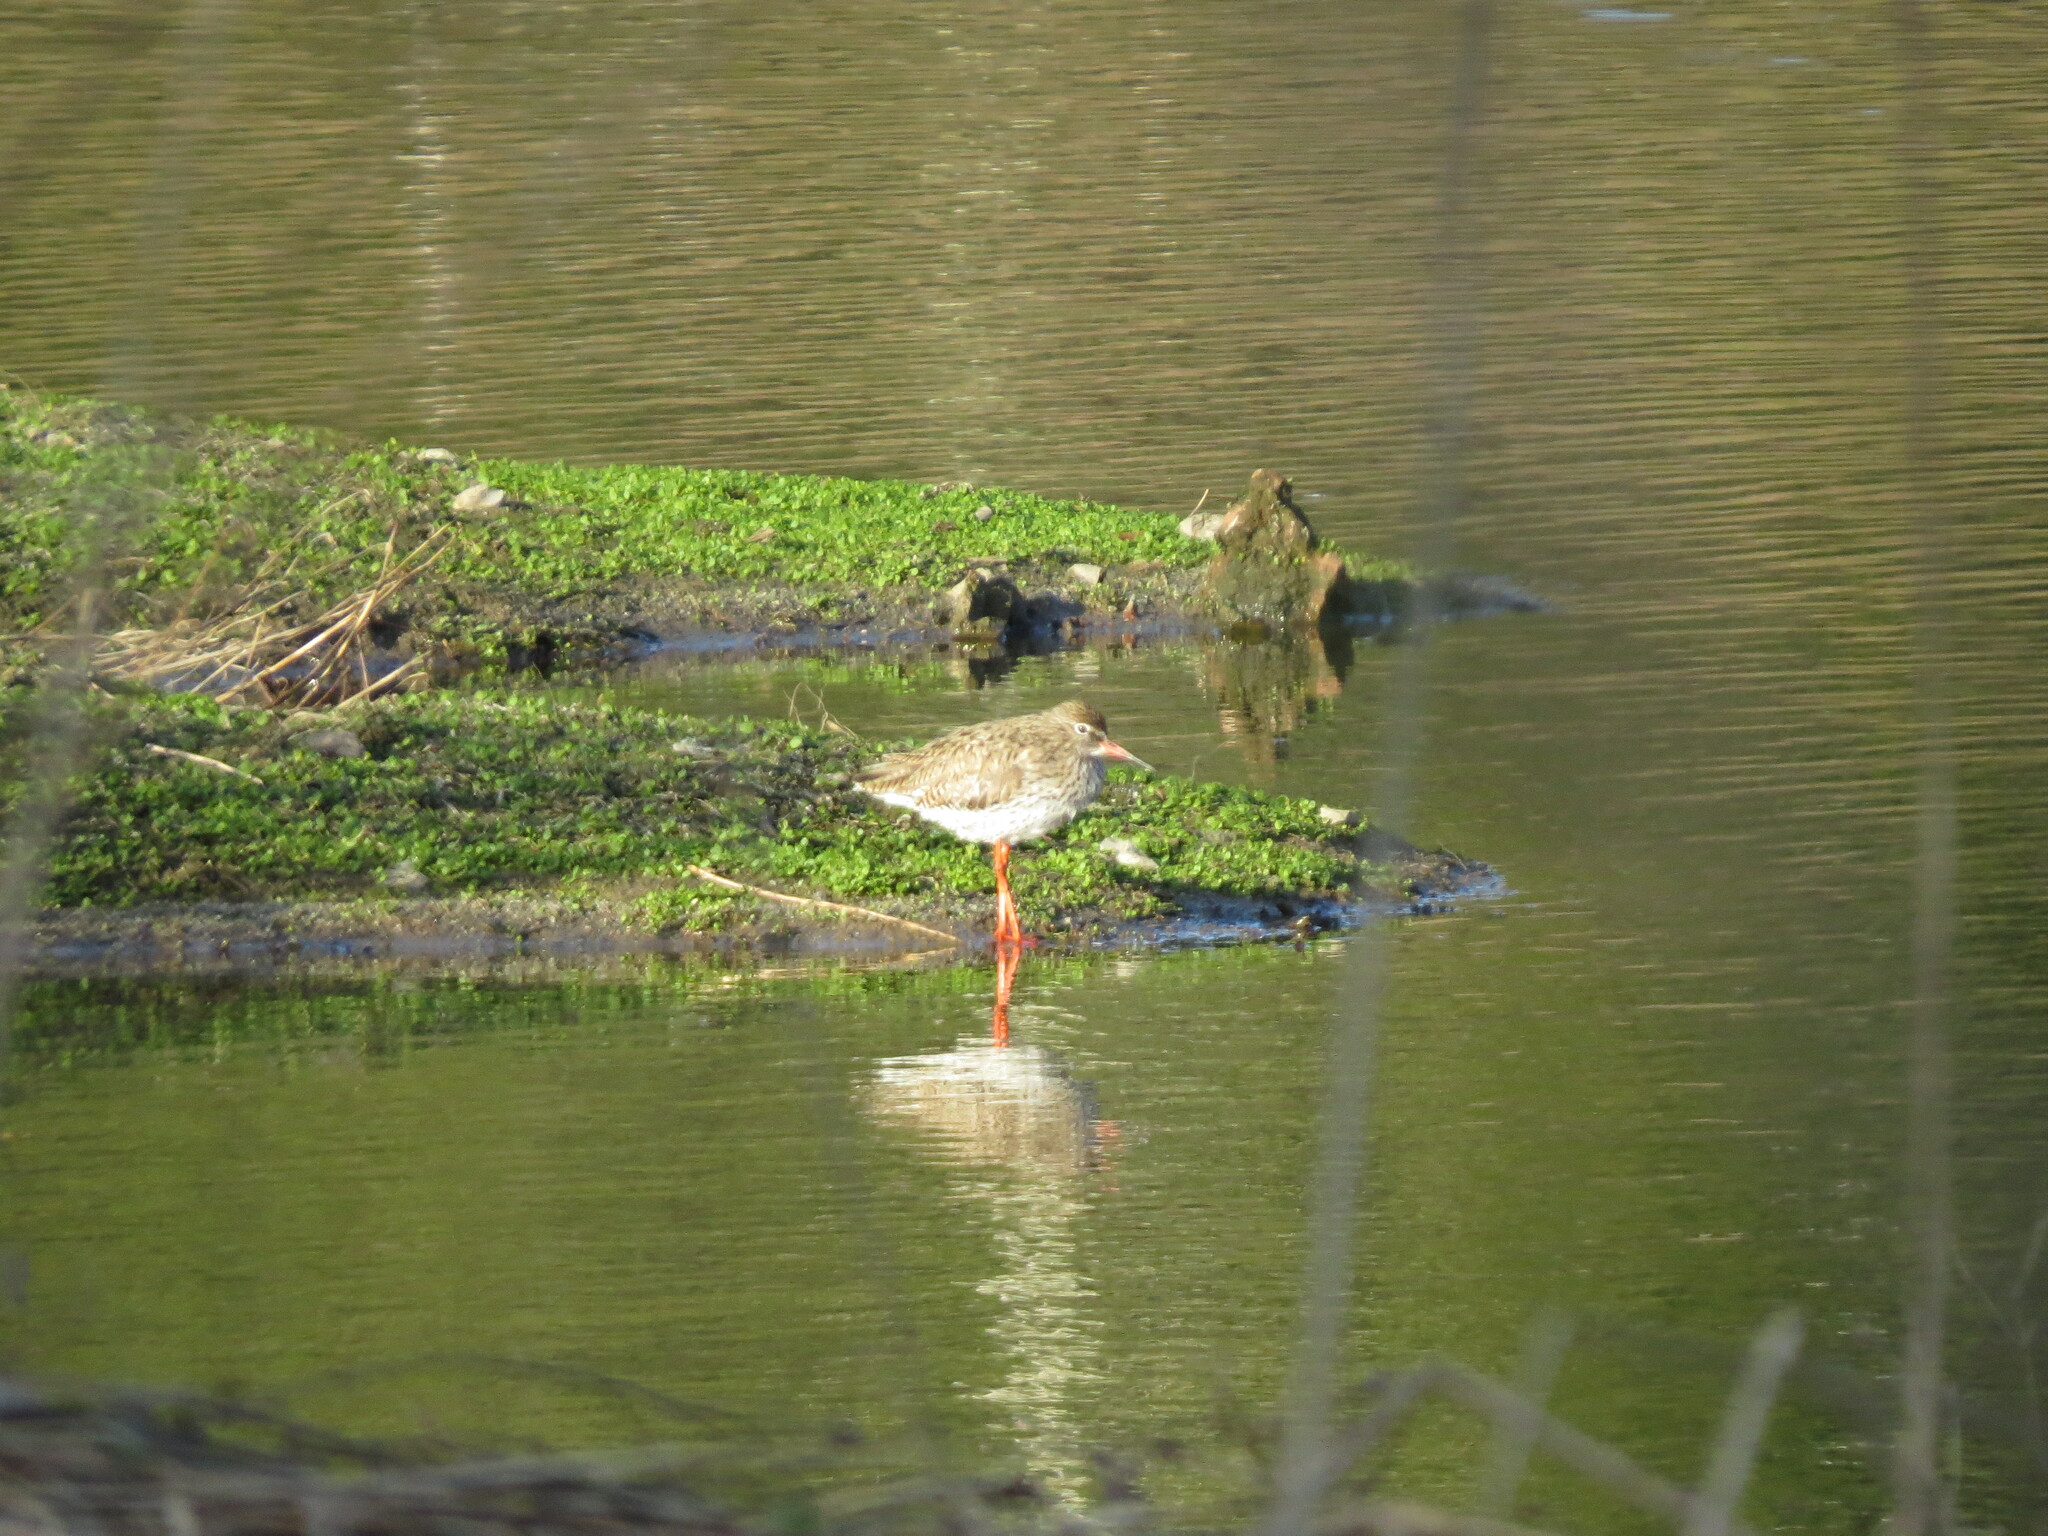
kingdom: Animalia
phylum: Chordata
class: Aves
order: Charadriiformes
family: Scolopacidae
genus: Tringa
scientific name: Tringa totanus
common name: Common redshank
